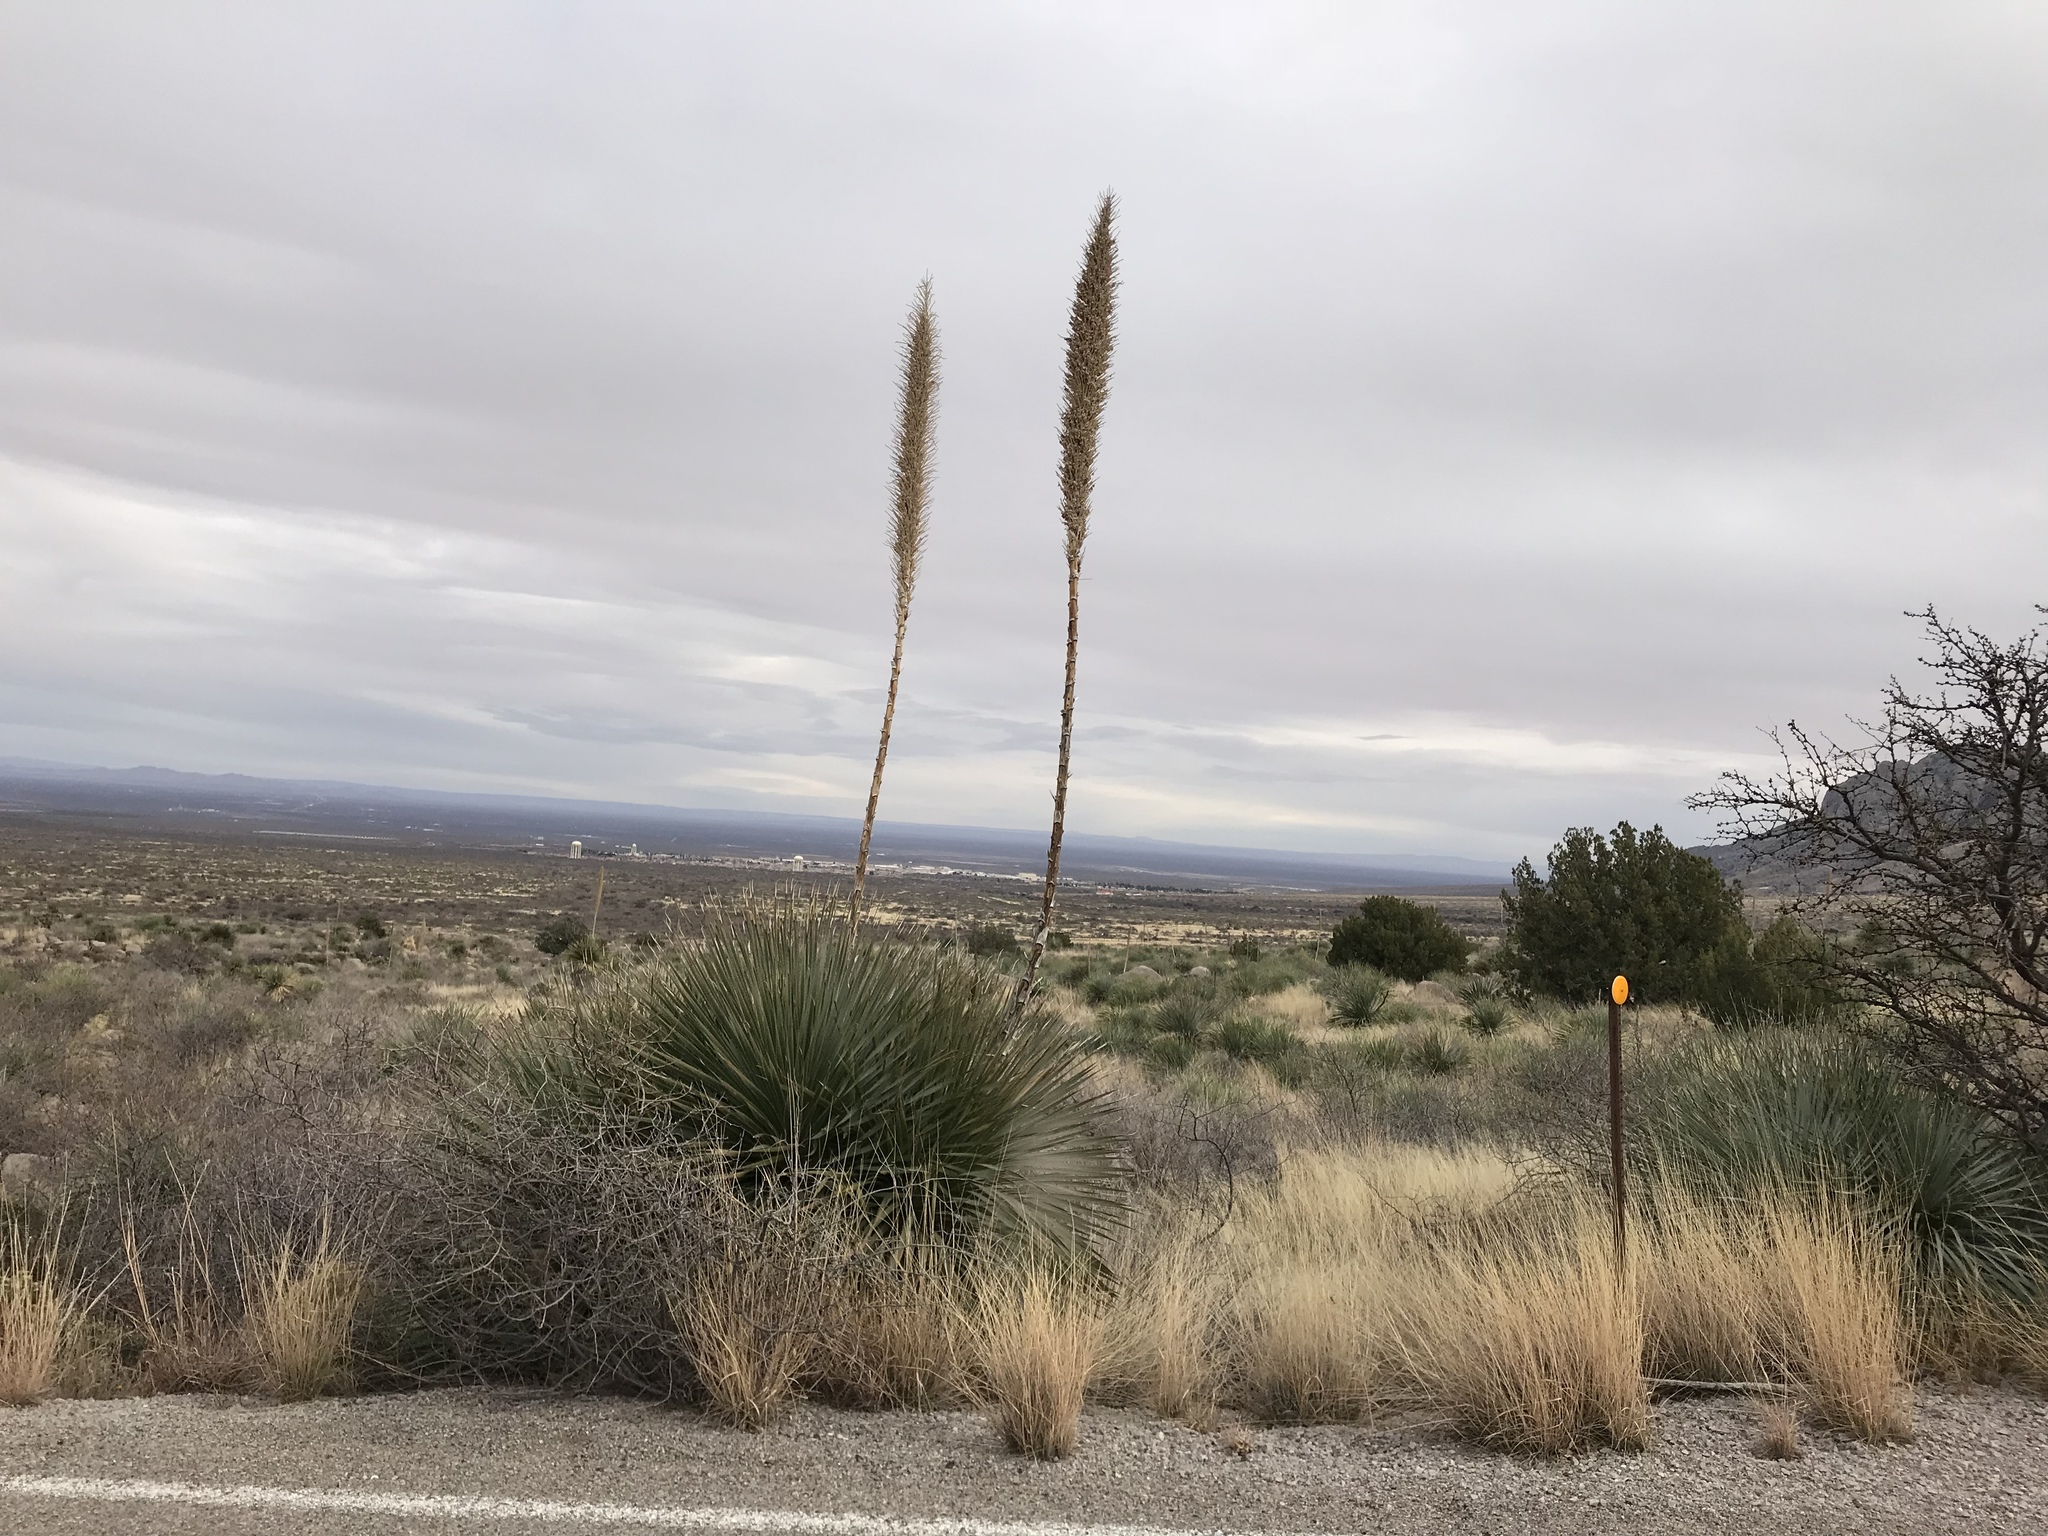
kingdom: Plantae
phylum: Tracheophyta
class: Liliopsida
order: Asparagales
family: Asparagaceae
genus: Dasylirion
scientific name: Dasylirion wheeleri
